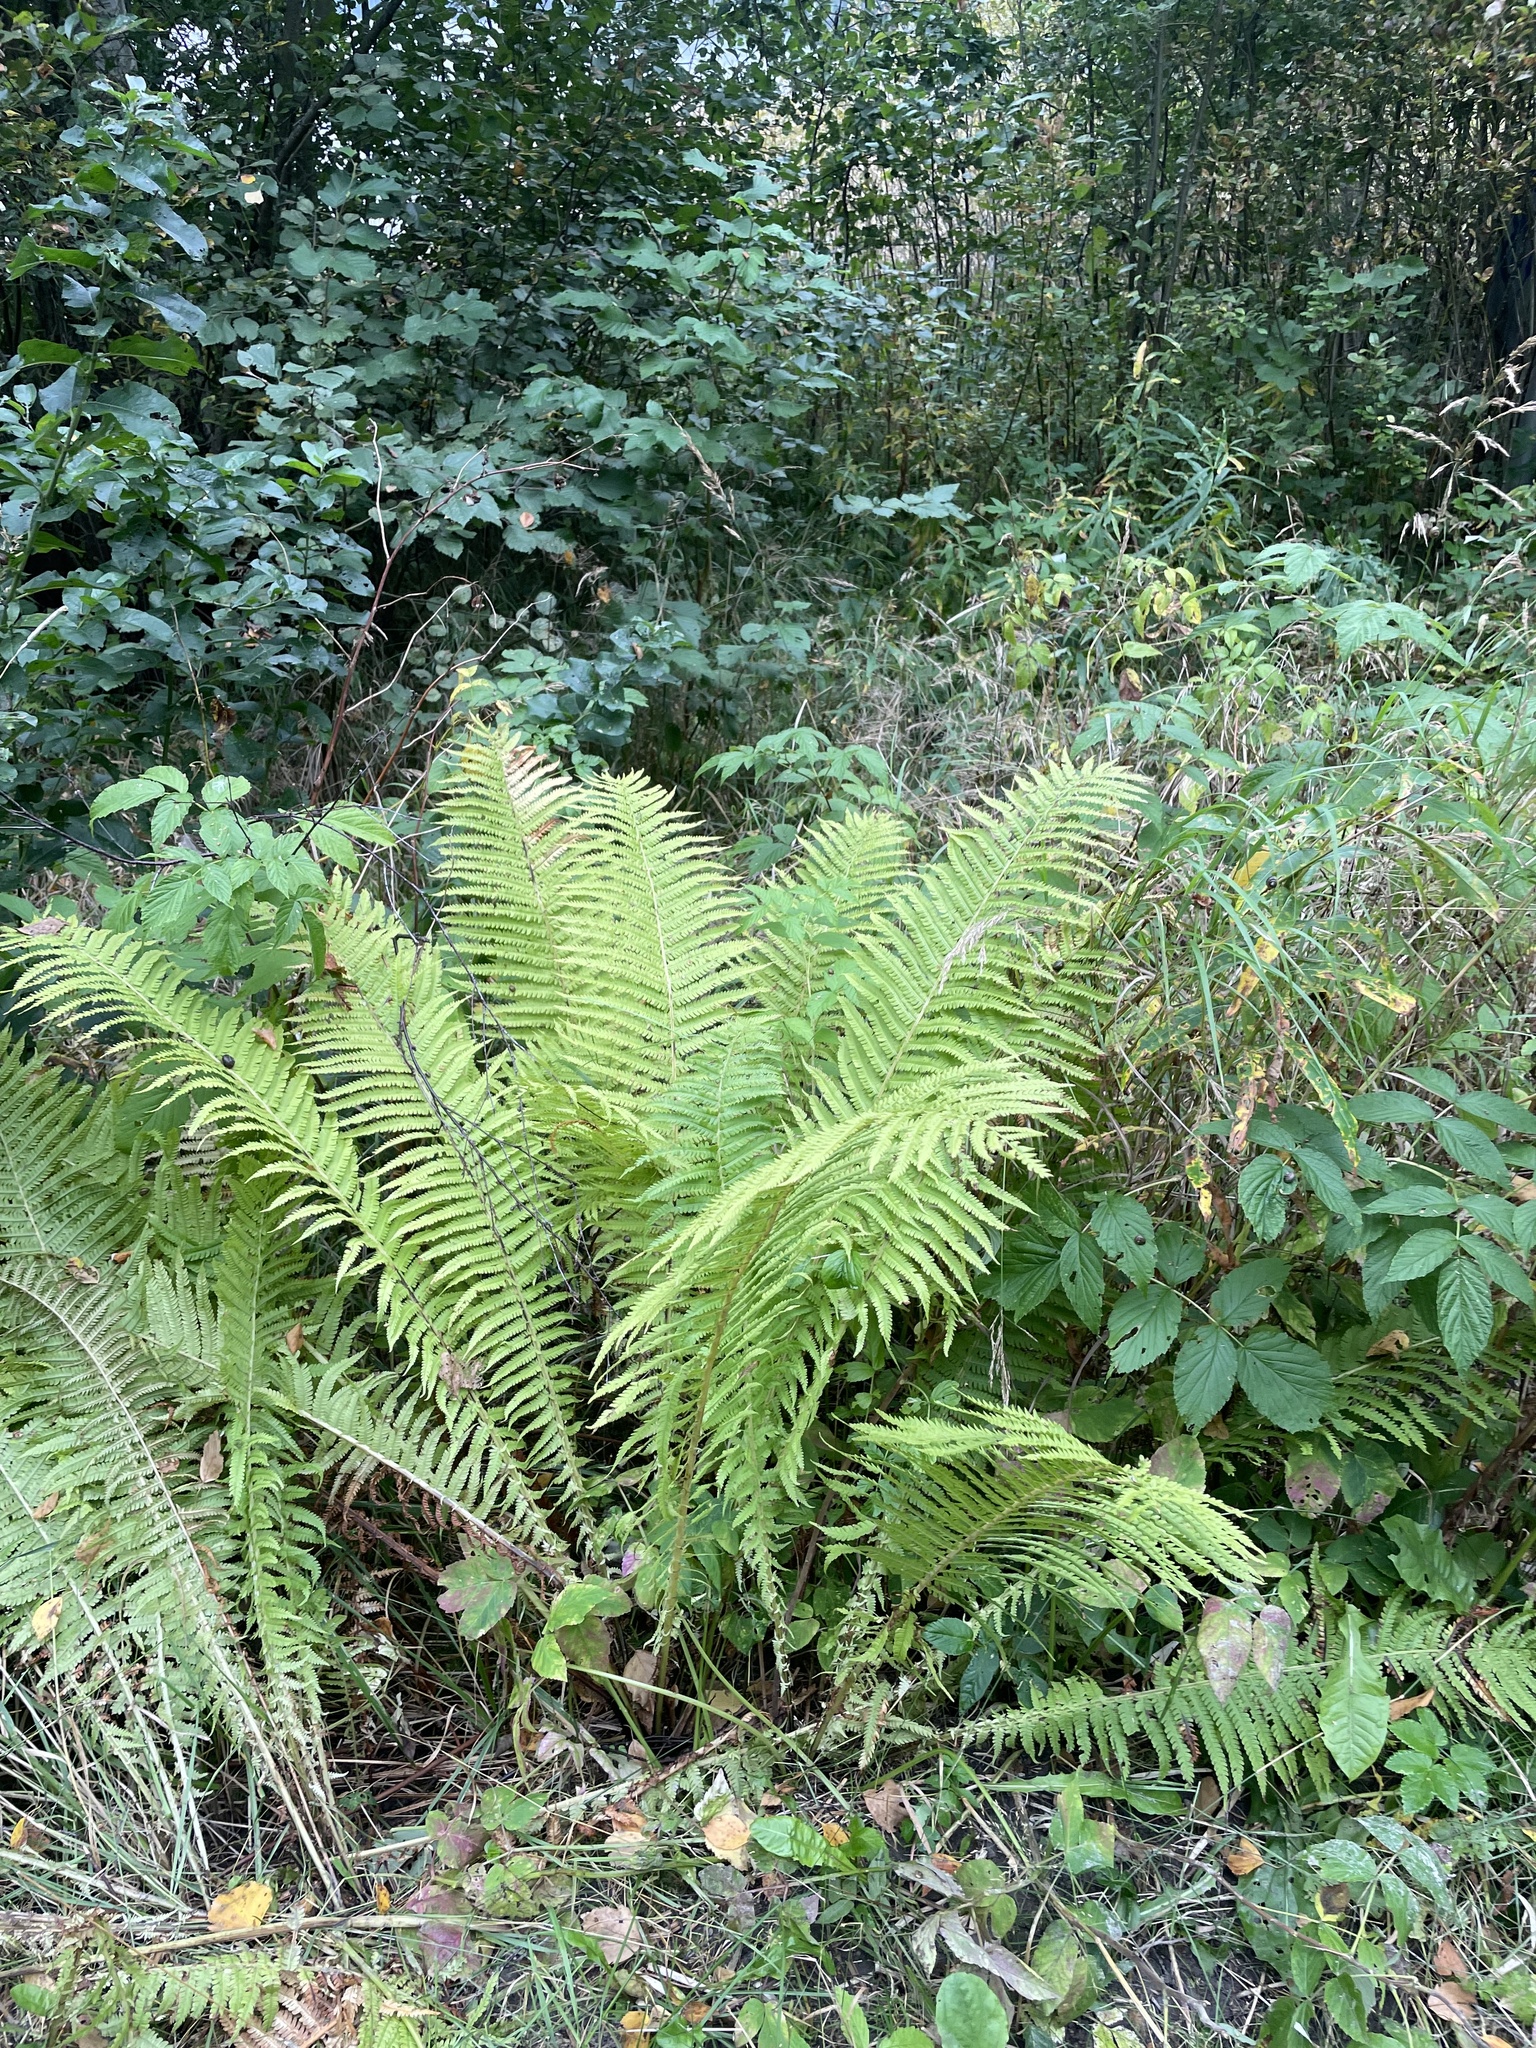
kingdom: Plantae
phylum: Tracheophyta
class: Polypodiopsida
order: Polypodiales
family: Onocleaceae
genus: Matteuccia
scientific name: Matteuccia struthiopteris
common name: Ostrich fern
